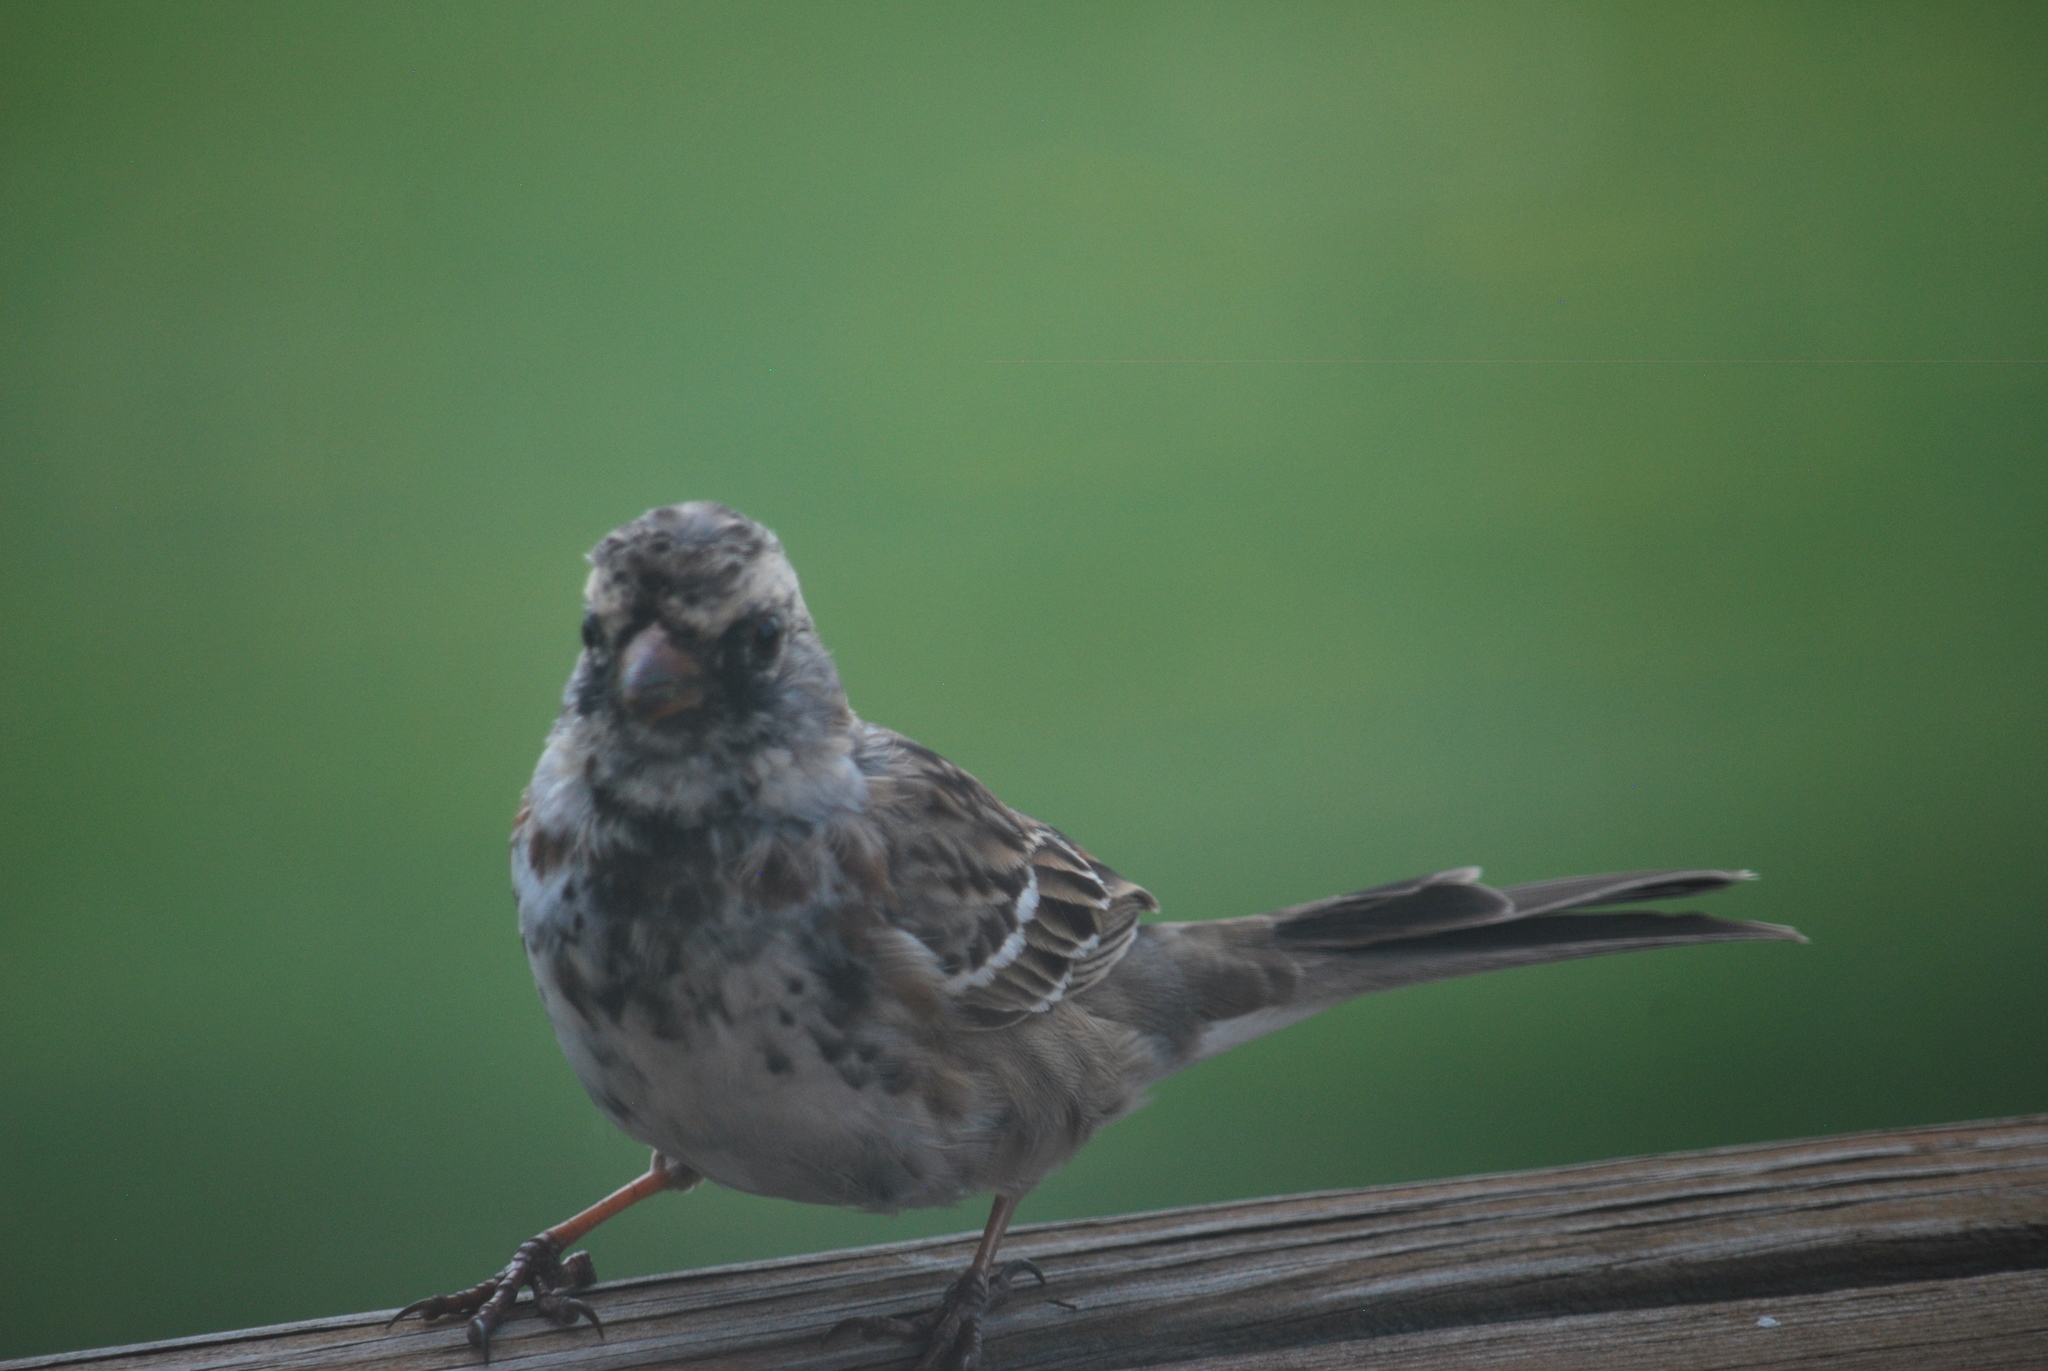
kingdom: Animalia
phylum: Chordata
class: Aves
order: Passeriformes
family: Passerellidae
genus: Zonotrichia
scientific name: Zonotrichia querula
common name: Harris's sparrow
